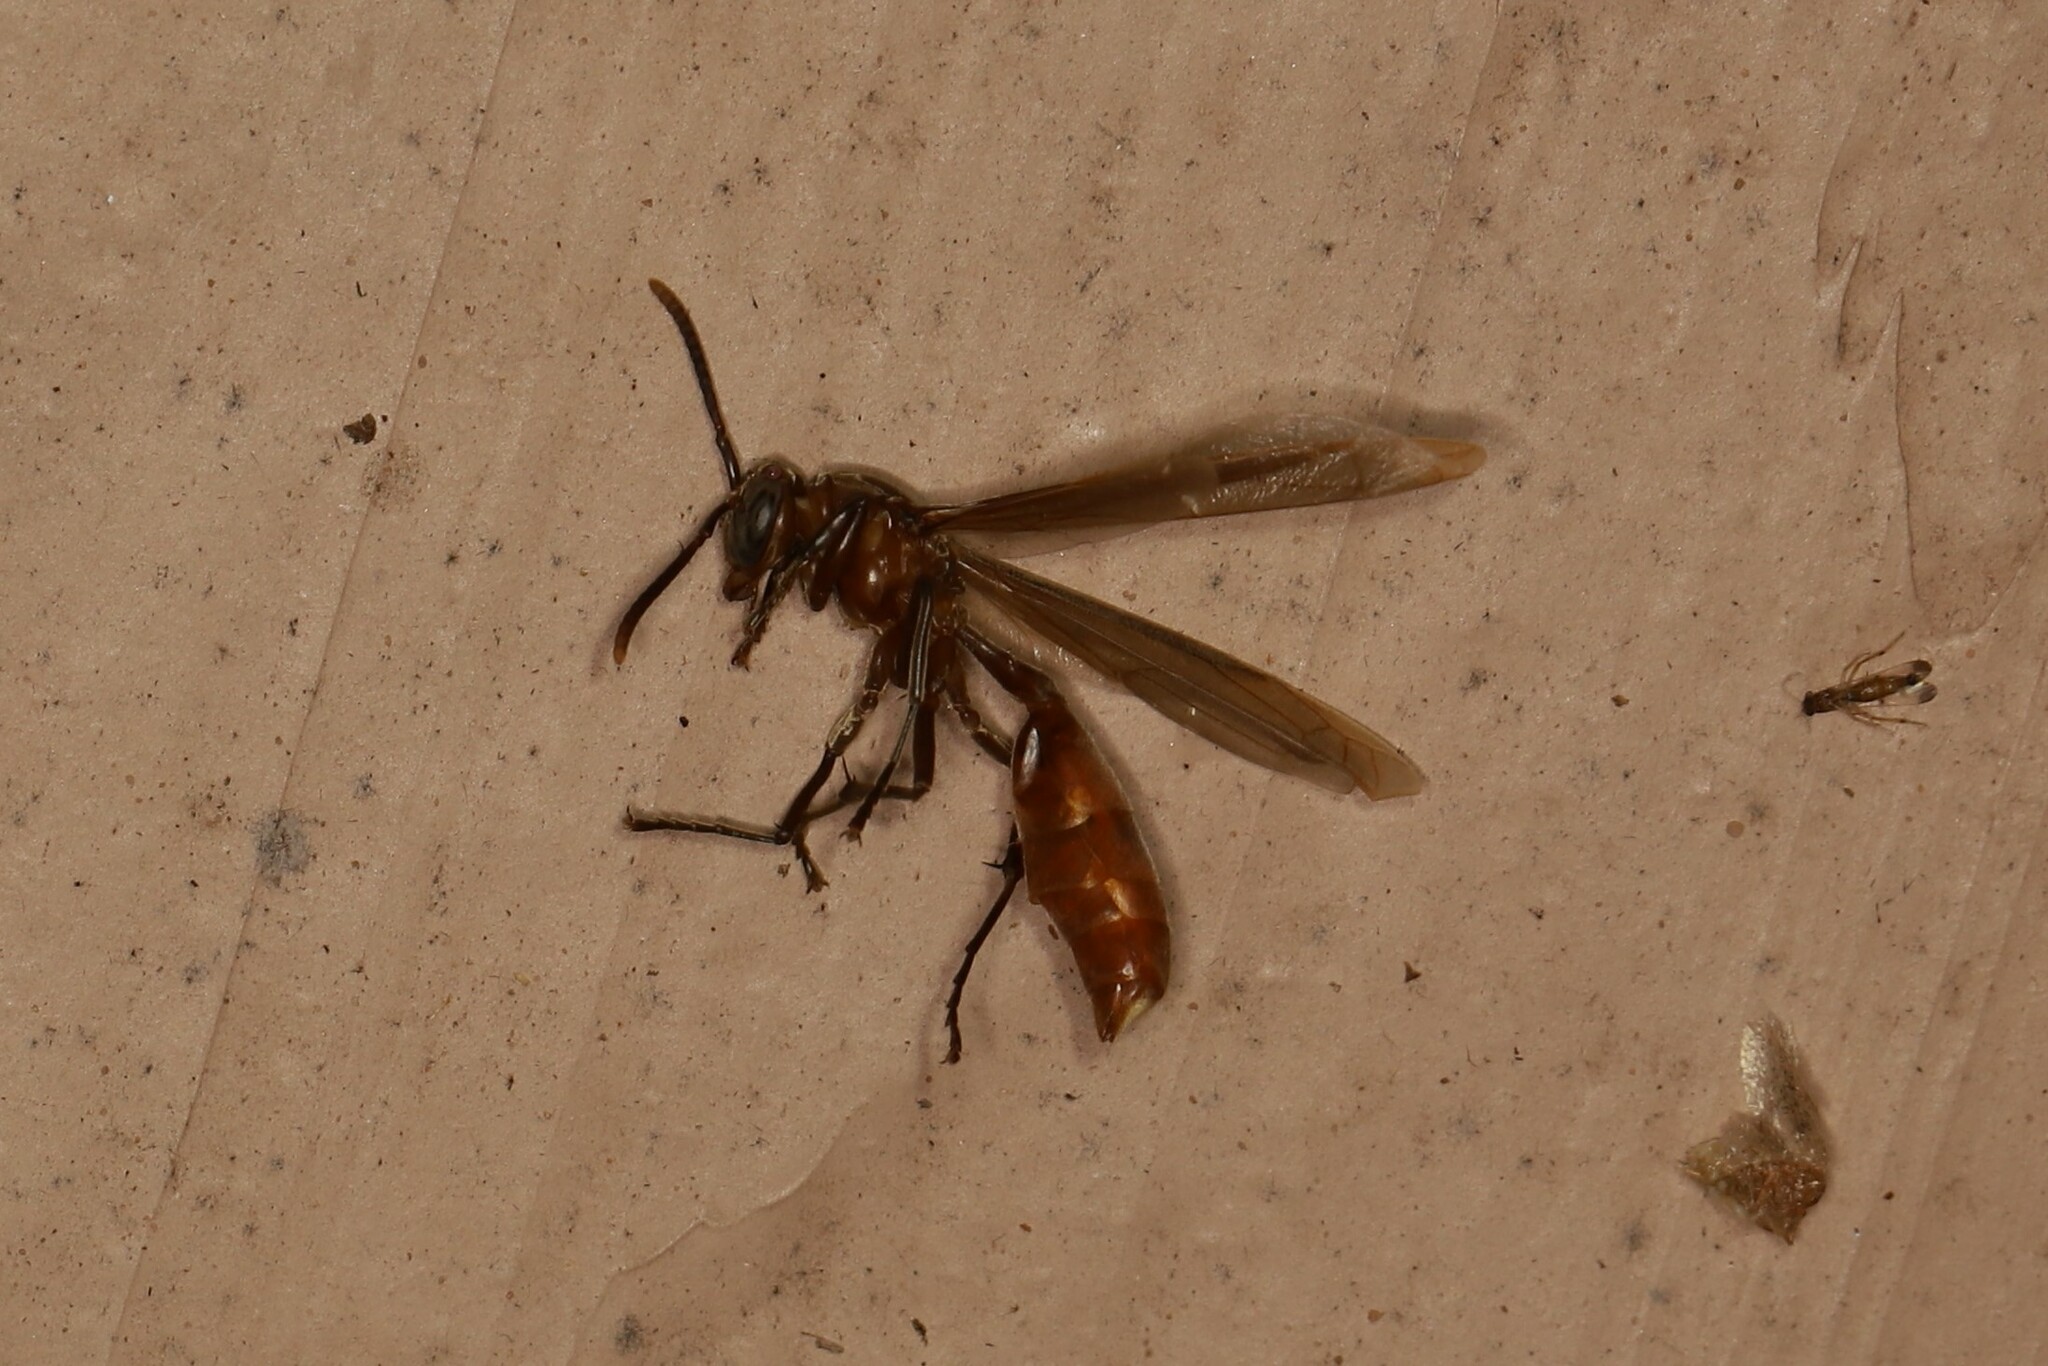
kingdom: Animalia
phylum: Arthropoda
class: Insecta
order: Hymenoptera
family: Vespidae
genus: Apoica
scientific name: Apoica pallida
